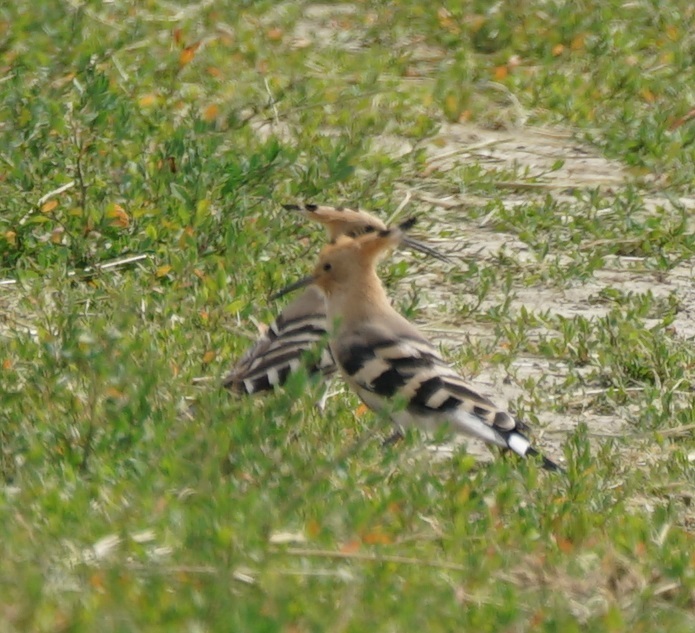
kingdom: Animalia
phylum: Chordata
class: Aves
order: Bucerotiformes
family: Upupidae
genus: Upupa
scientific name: Upupa epops
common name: Eurasian hoopoe
